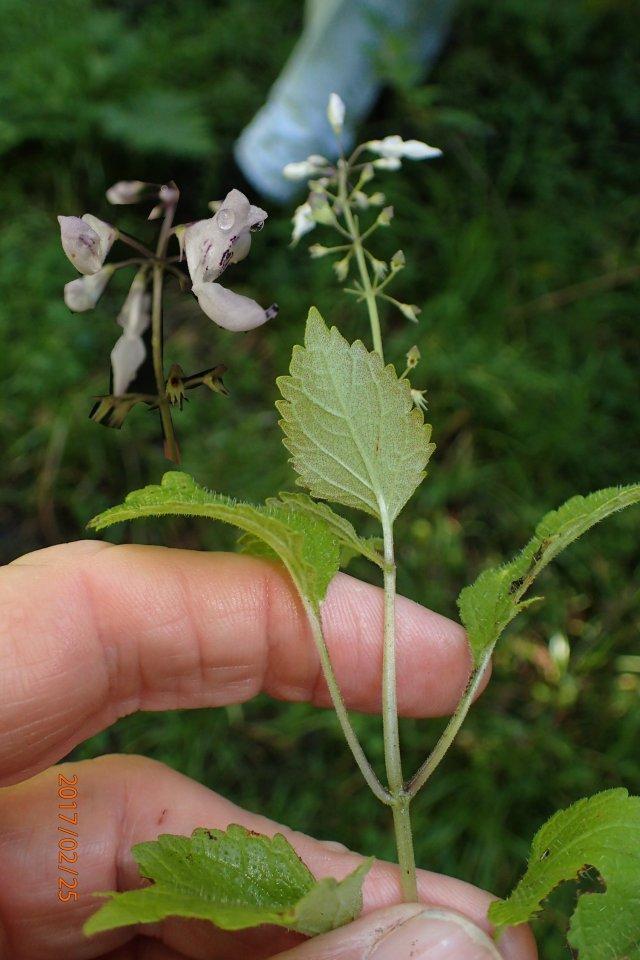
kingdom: Plantae
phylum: Tracheophyta
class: Magnoliopsida
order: Lamiales
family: Lamiaceae
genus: Equilabium
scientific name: Equilabium laxiflorum
